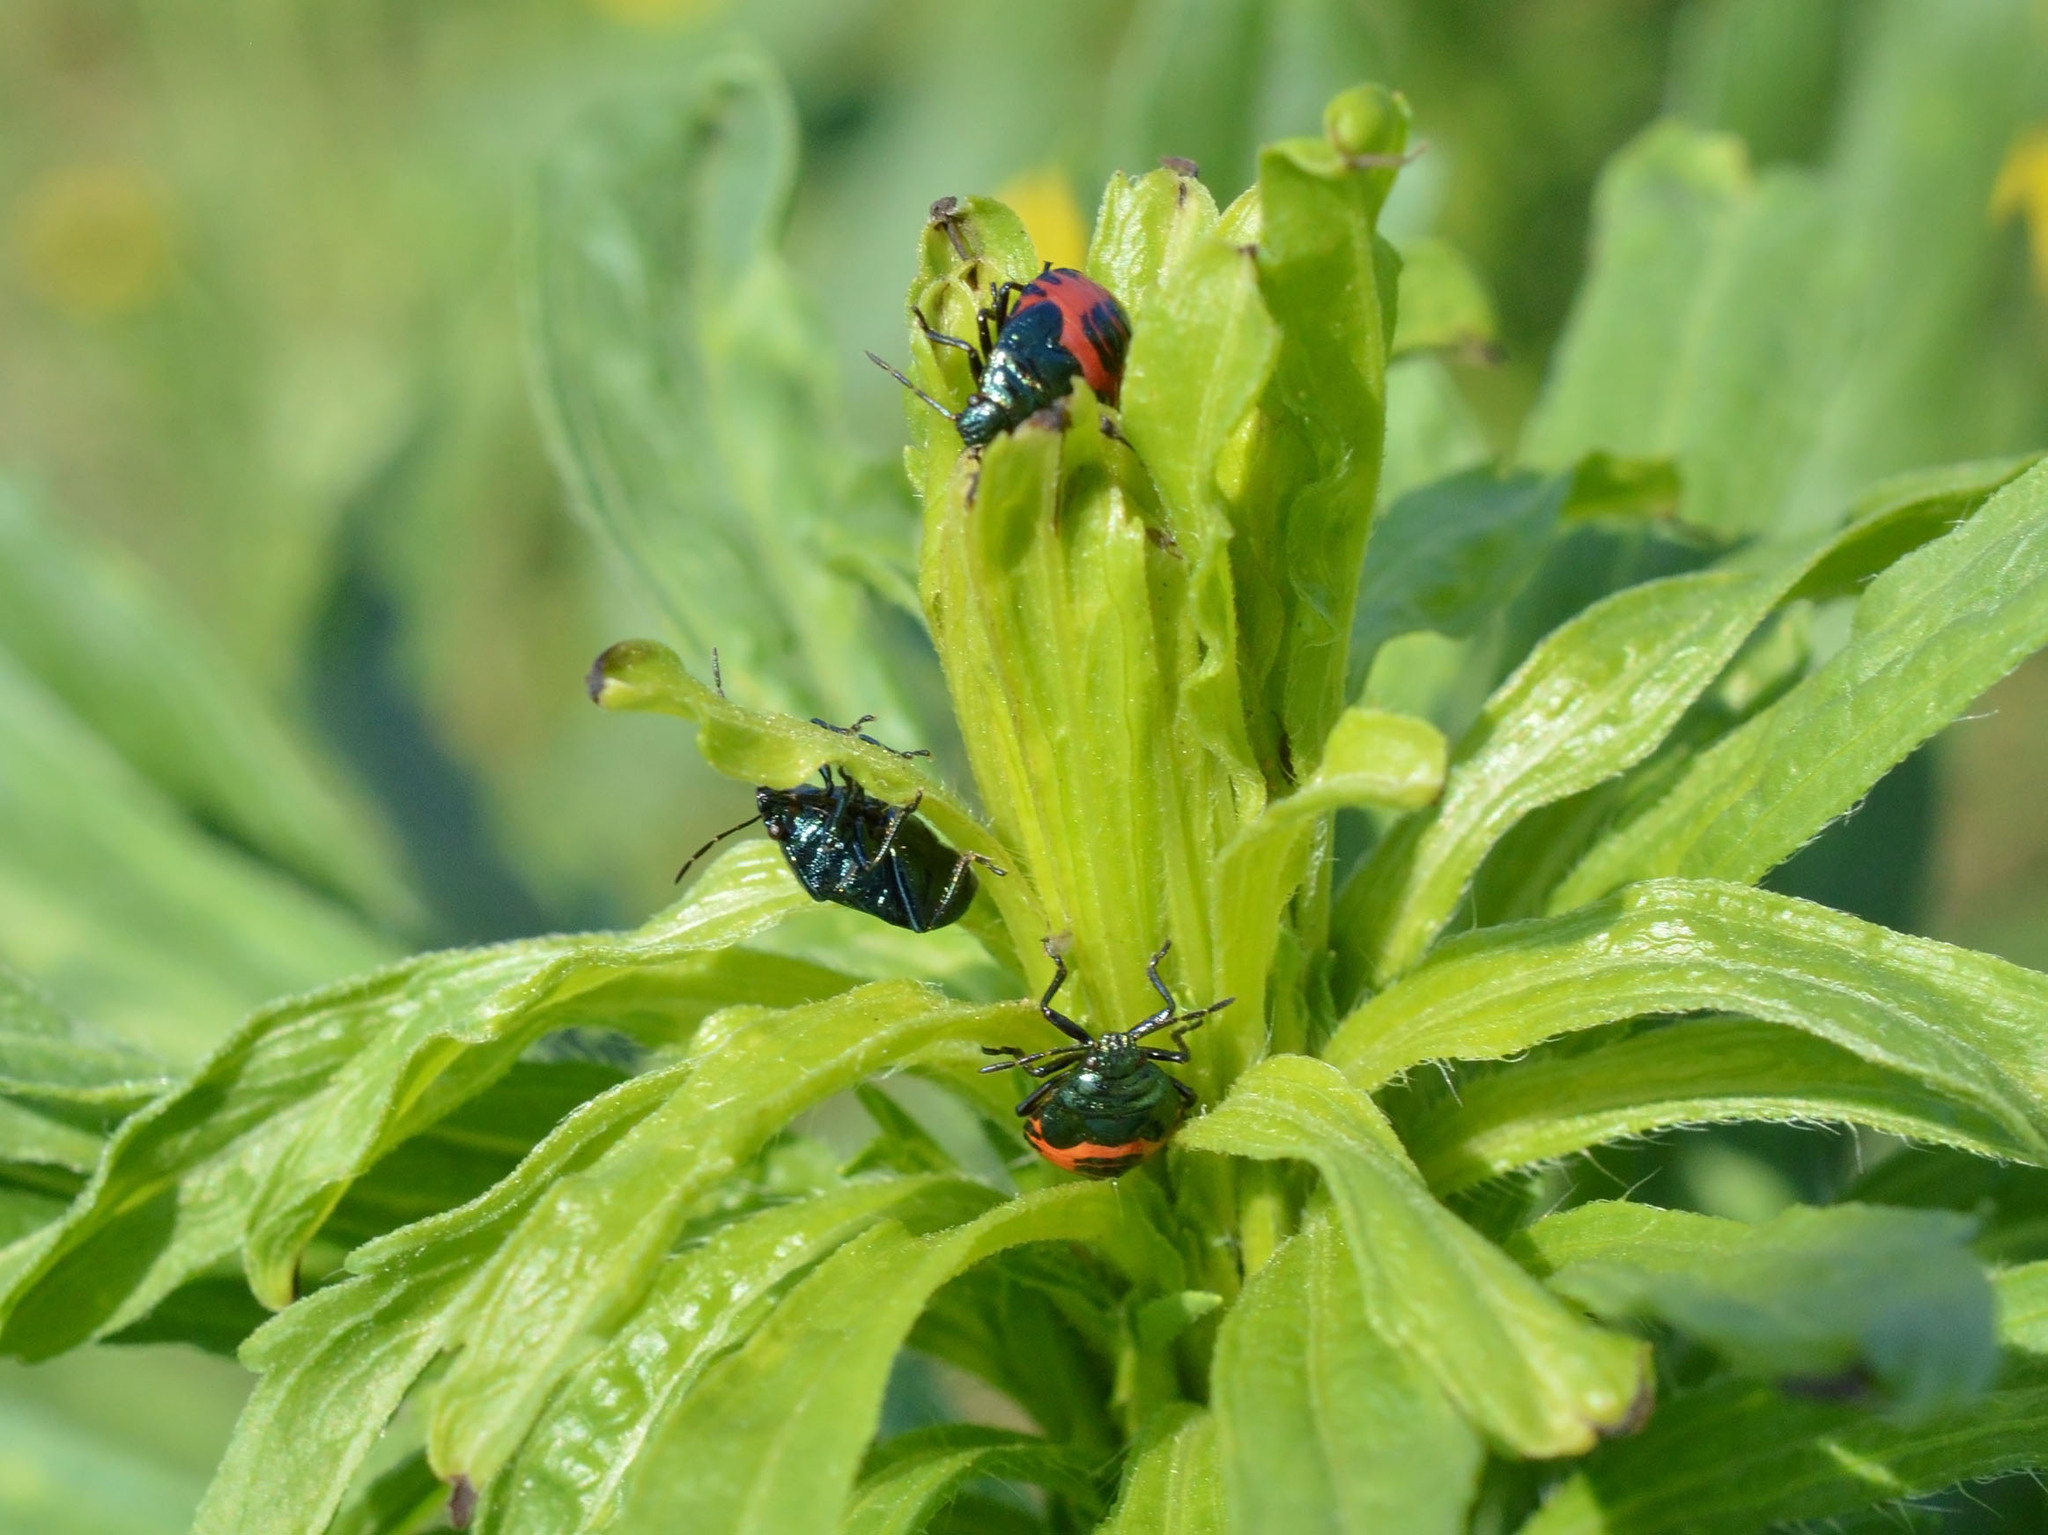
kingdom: Animalia
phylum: Arthropoda
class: Insecta
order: Hemiptera
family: Pentatomidae
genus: Zicrona
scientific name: Zicrona caerulea
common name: Blue shieldbug
